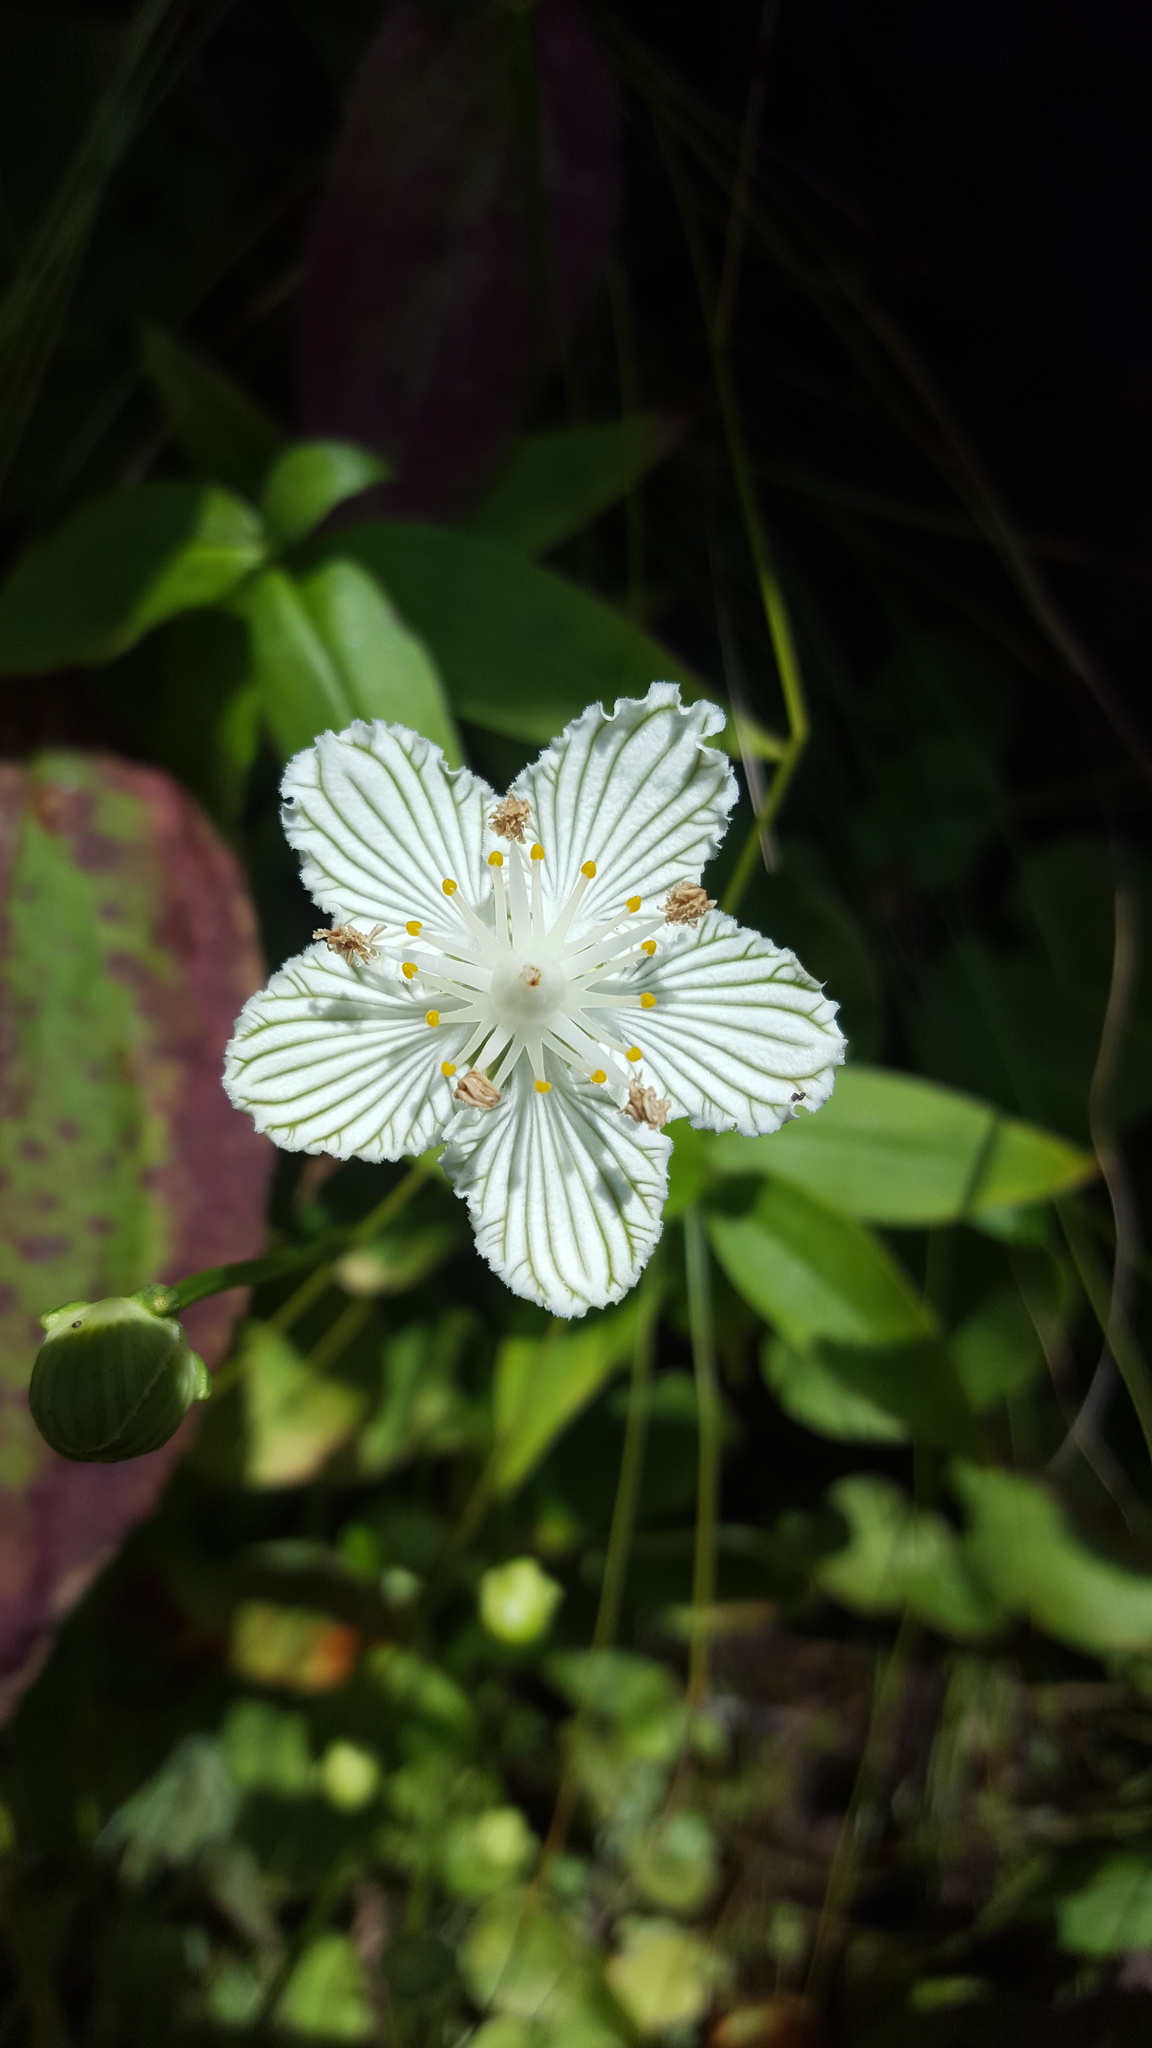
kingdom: Plantae
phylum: Tracheophyta
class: Magnoliopsida
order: Celastrales
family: Parnassiaceae
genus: Parnassia
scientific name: Parnassia asarifolia
